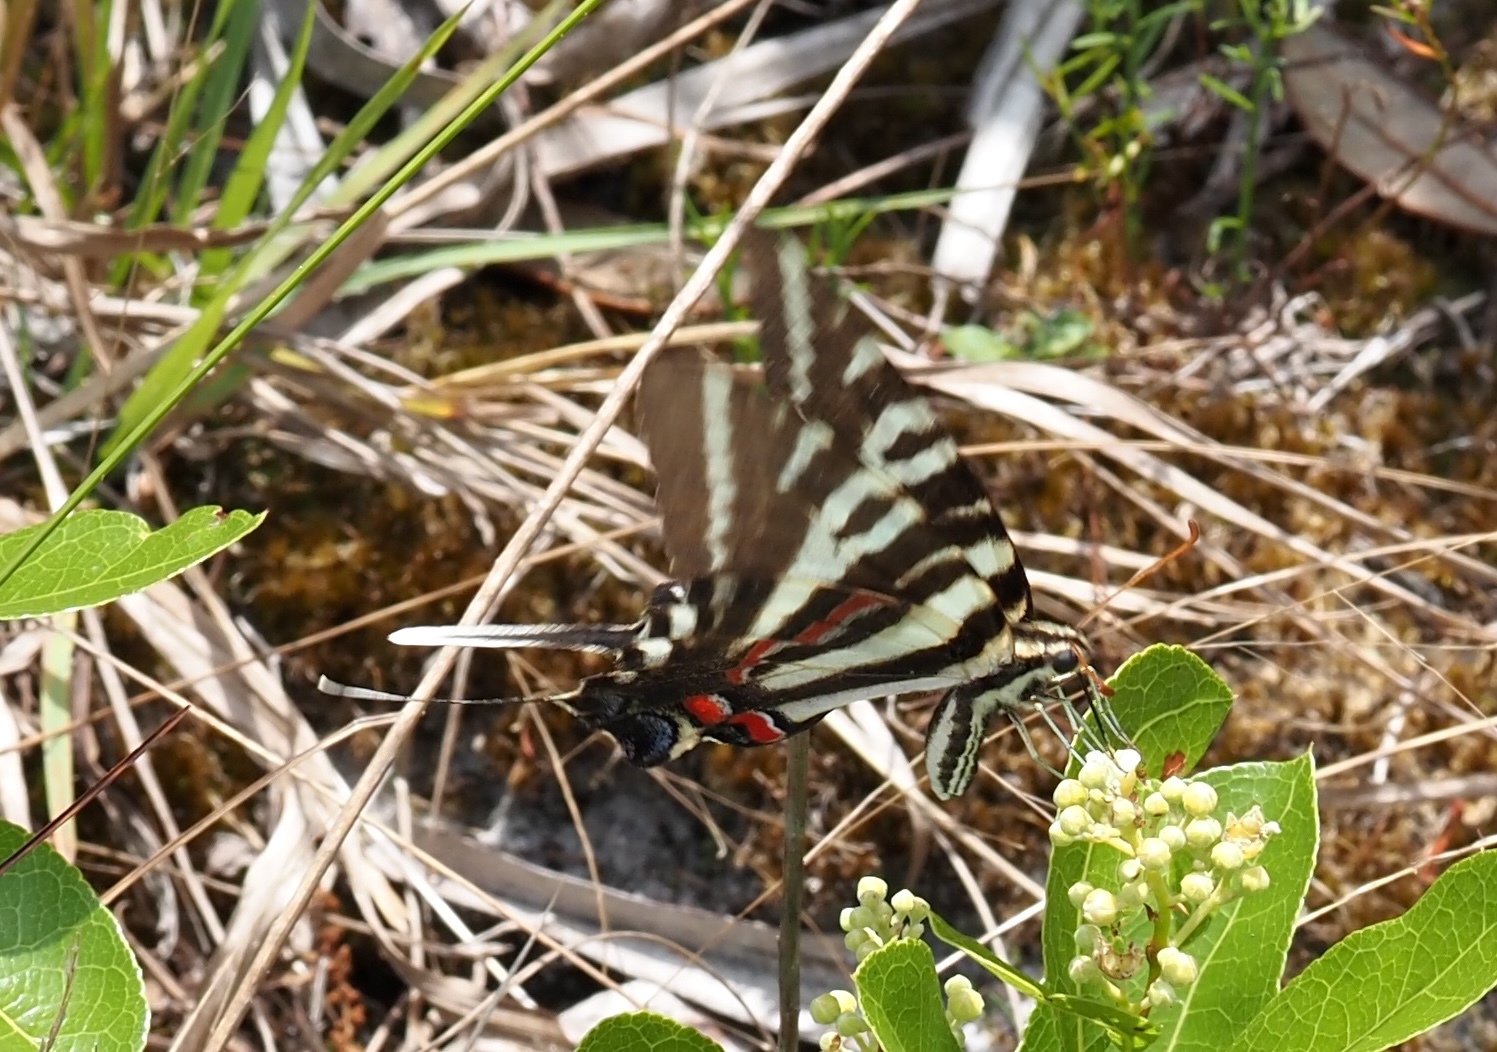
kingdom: Animalia
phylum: Arthropoda
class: Insecta
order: Lepidoptera
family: Papilionidae
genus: Protographium
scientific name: Protographium marcellus
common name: Zebra swallowtail
